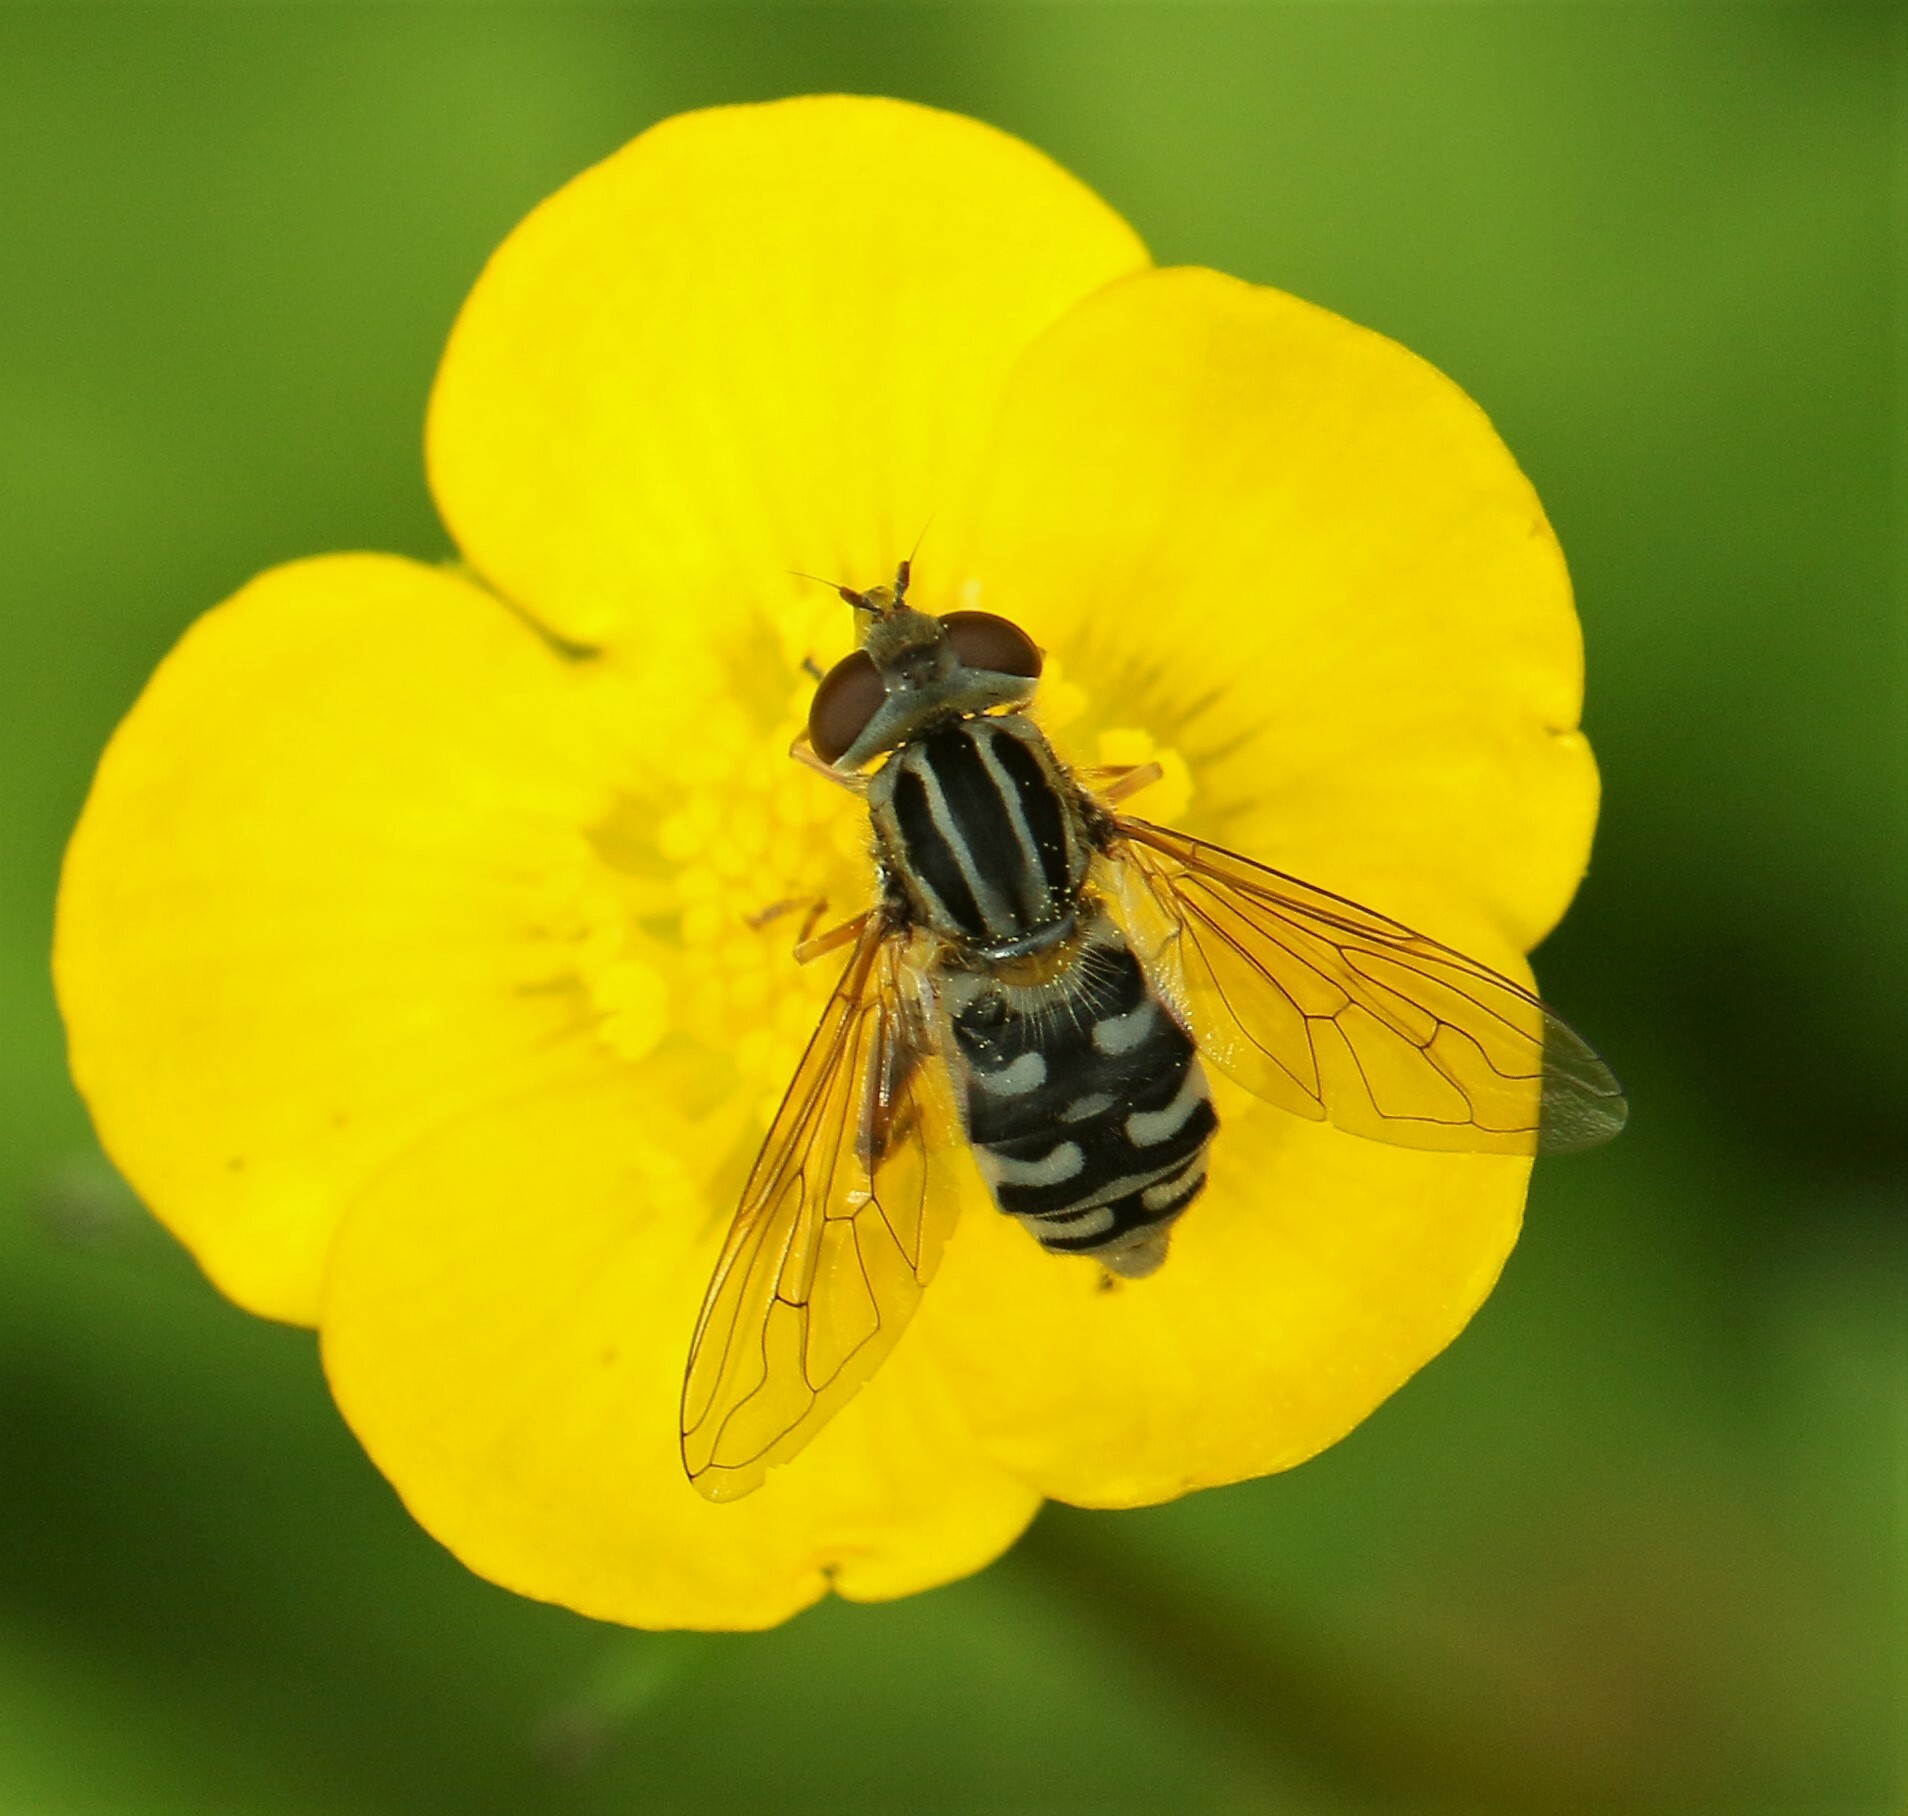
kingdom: Animalia
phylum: Arthropoda
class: Insecta
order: Diptera
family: Syrphidae
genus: Eurimyia
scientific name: Eurimyia stipatus
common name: Long-nosed swamp fly
